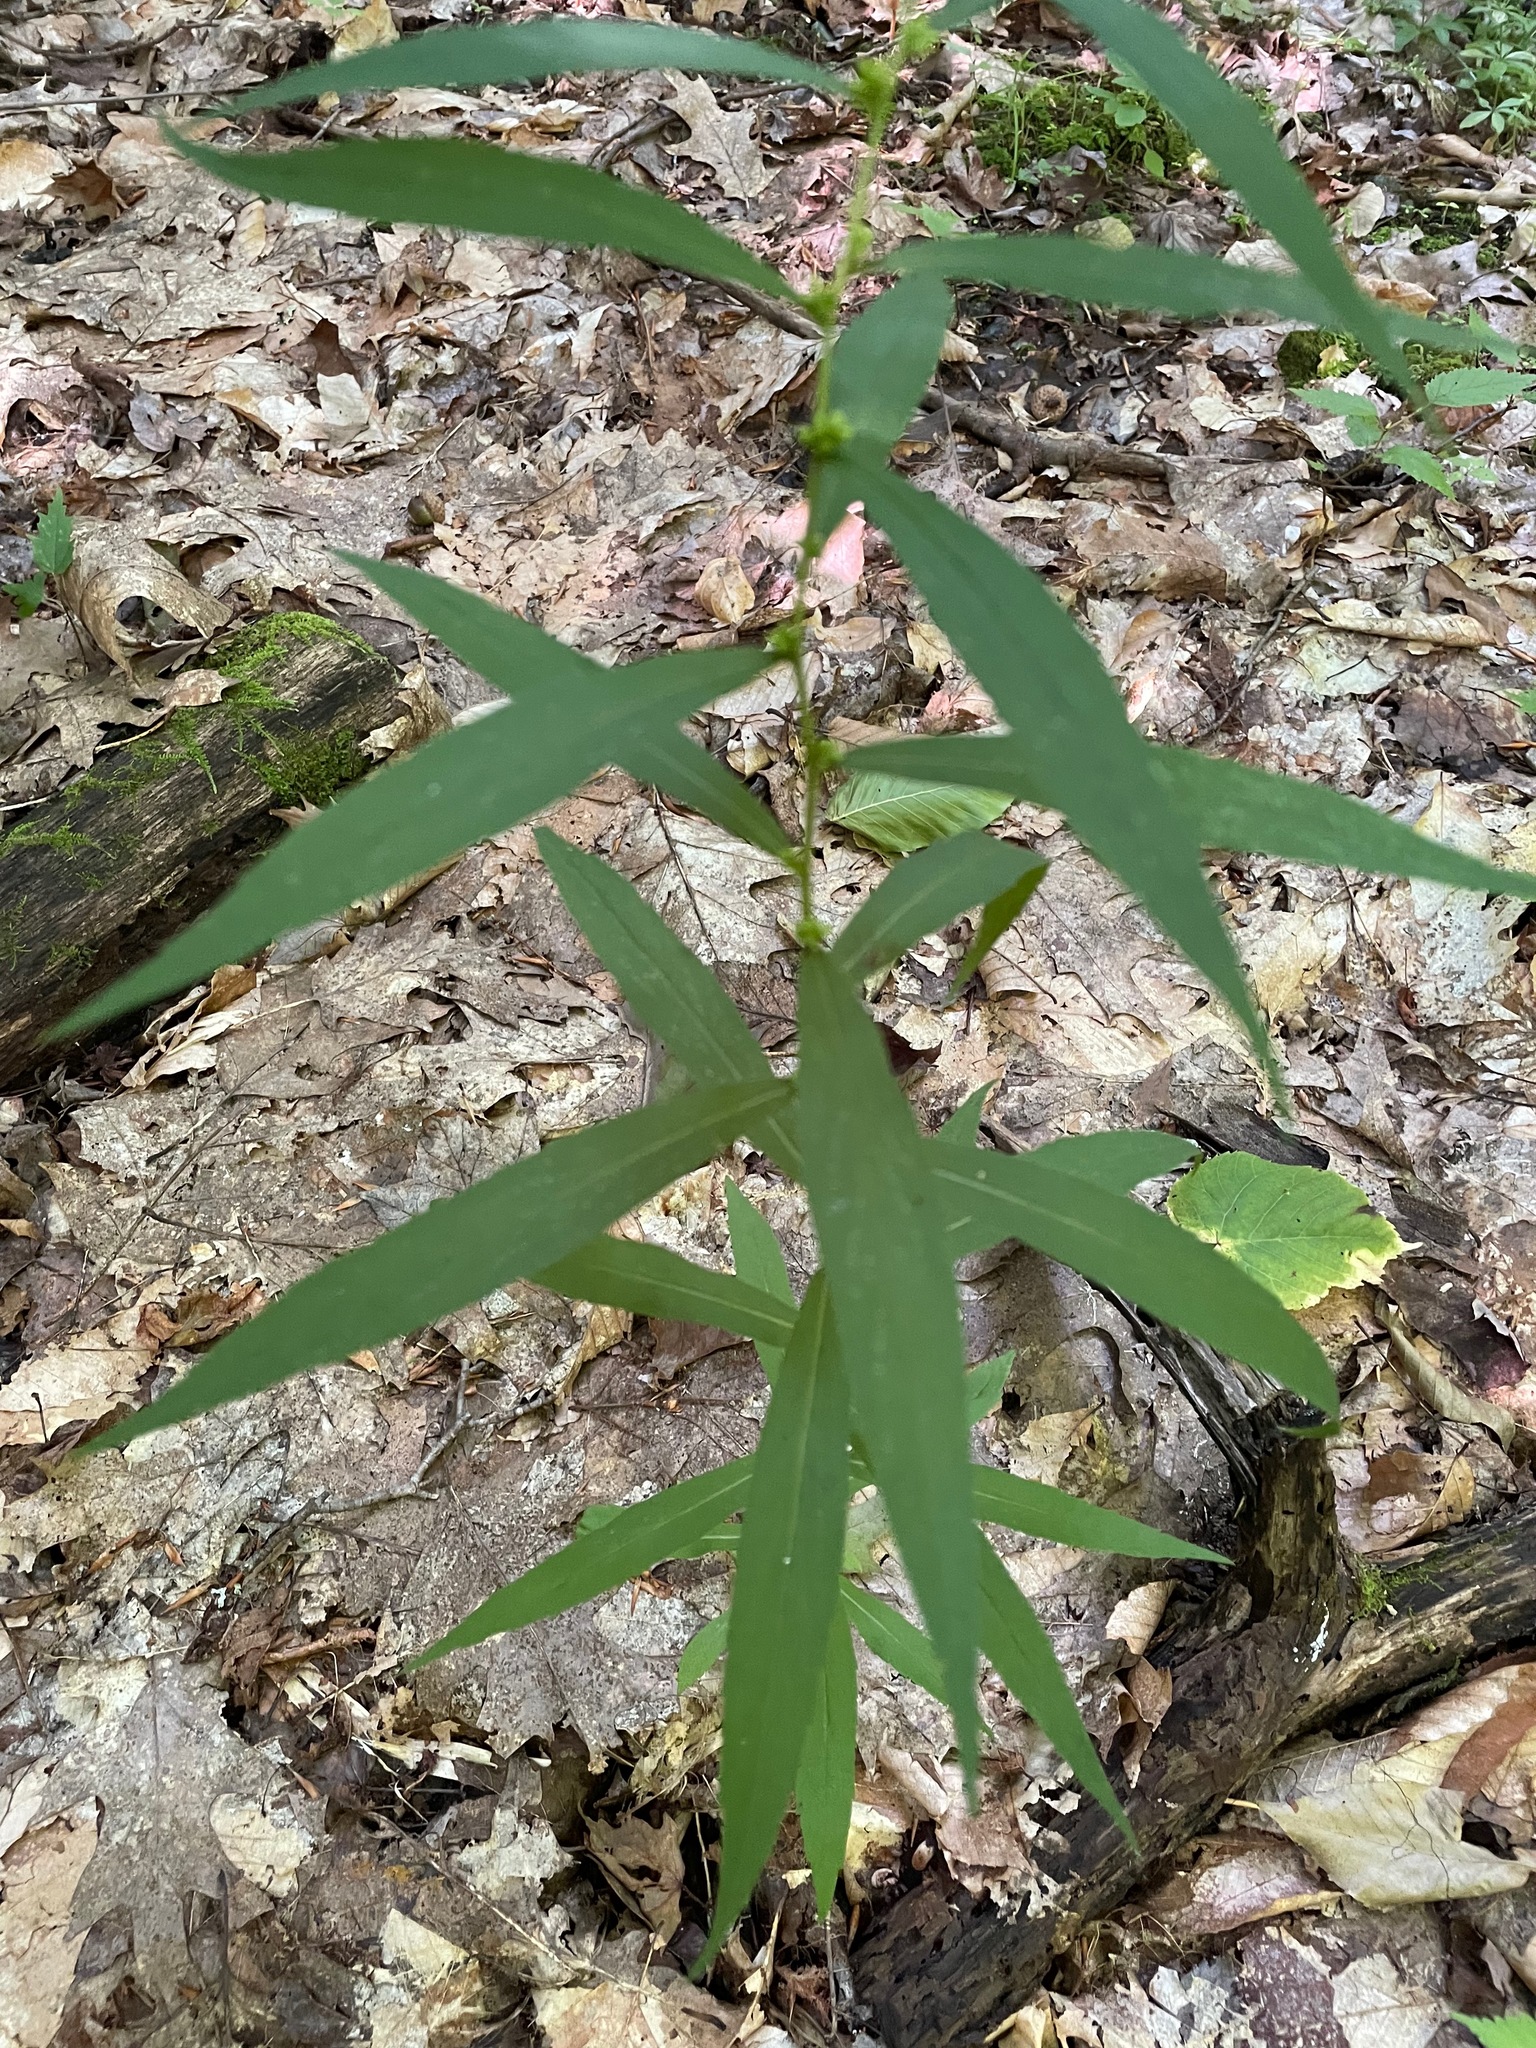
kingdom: Plantae
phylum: Tracheophyta
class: Magnoliopsida
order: Asterales
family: Asteraceae
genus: Solidago
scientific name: Solidago caesia
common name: Woodland goldenrod
